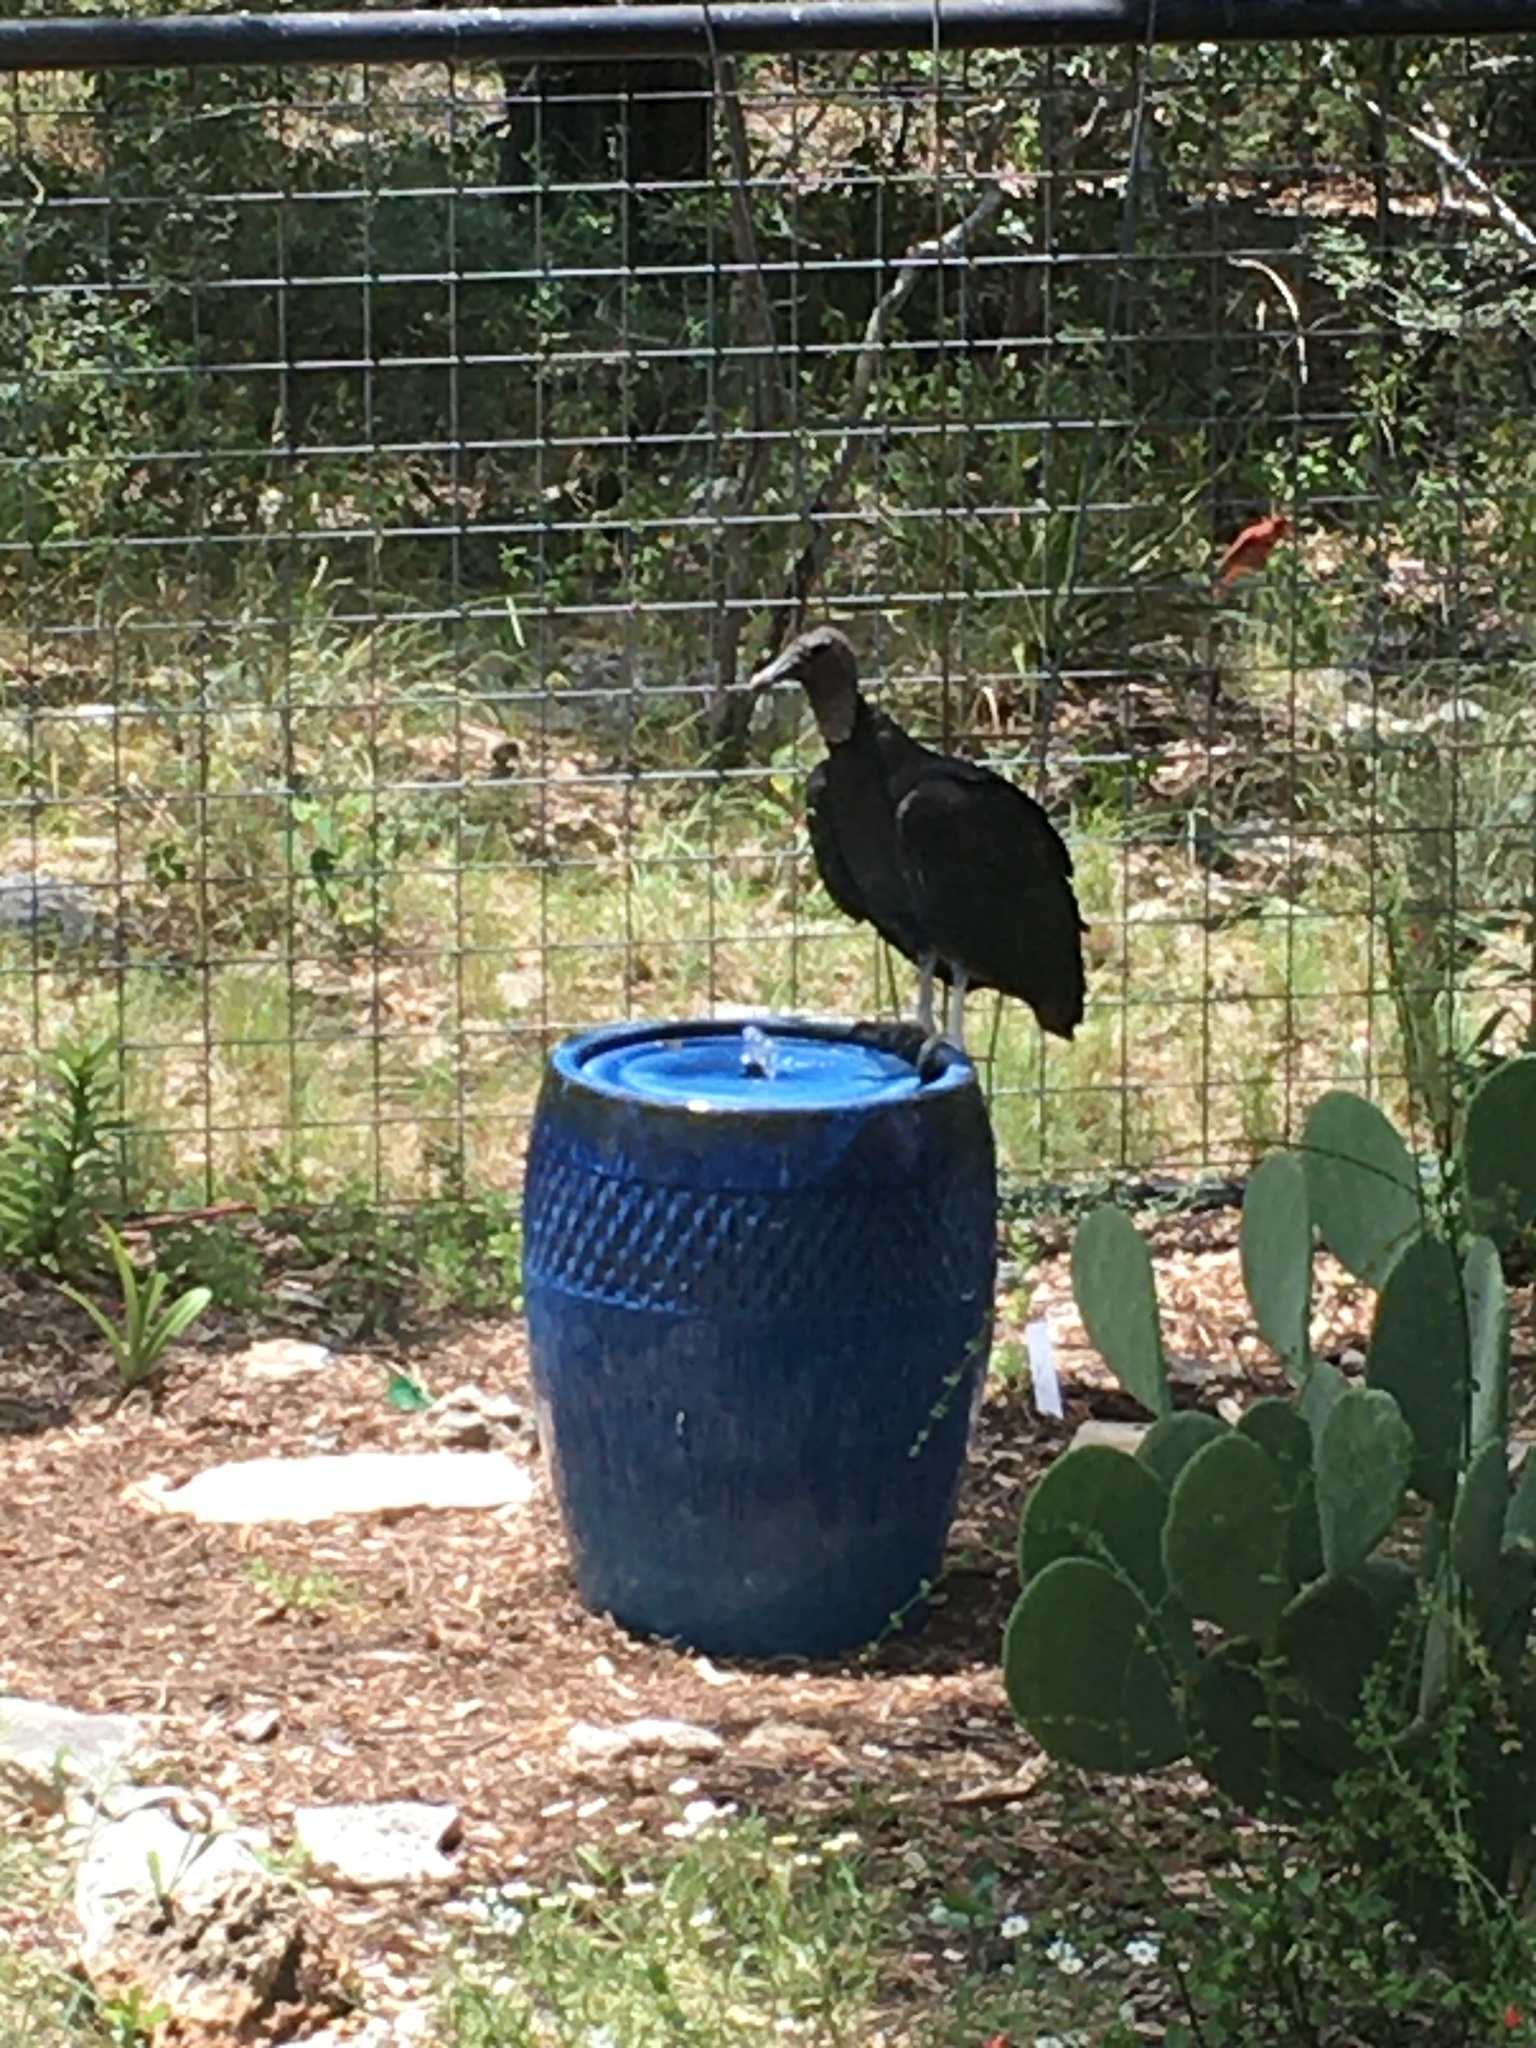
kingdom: Animalia
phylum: Chordata
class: Aves
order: Accipitriformes
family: Cathartidae
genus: Coragyps
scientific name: Coragyps atratus
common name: Black vulture
